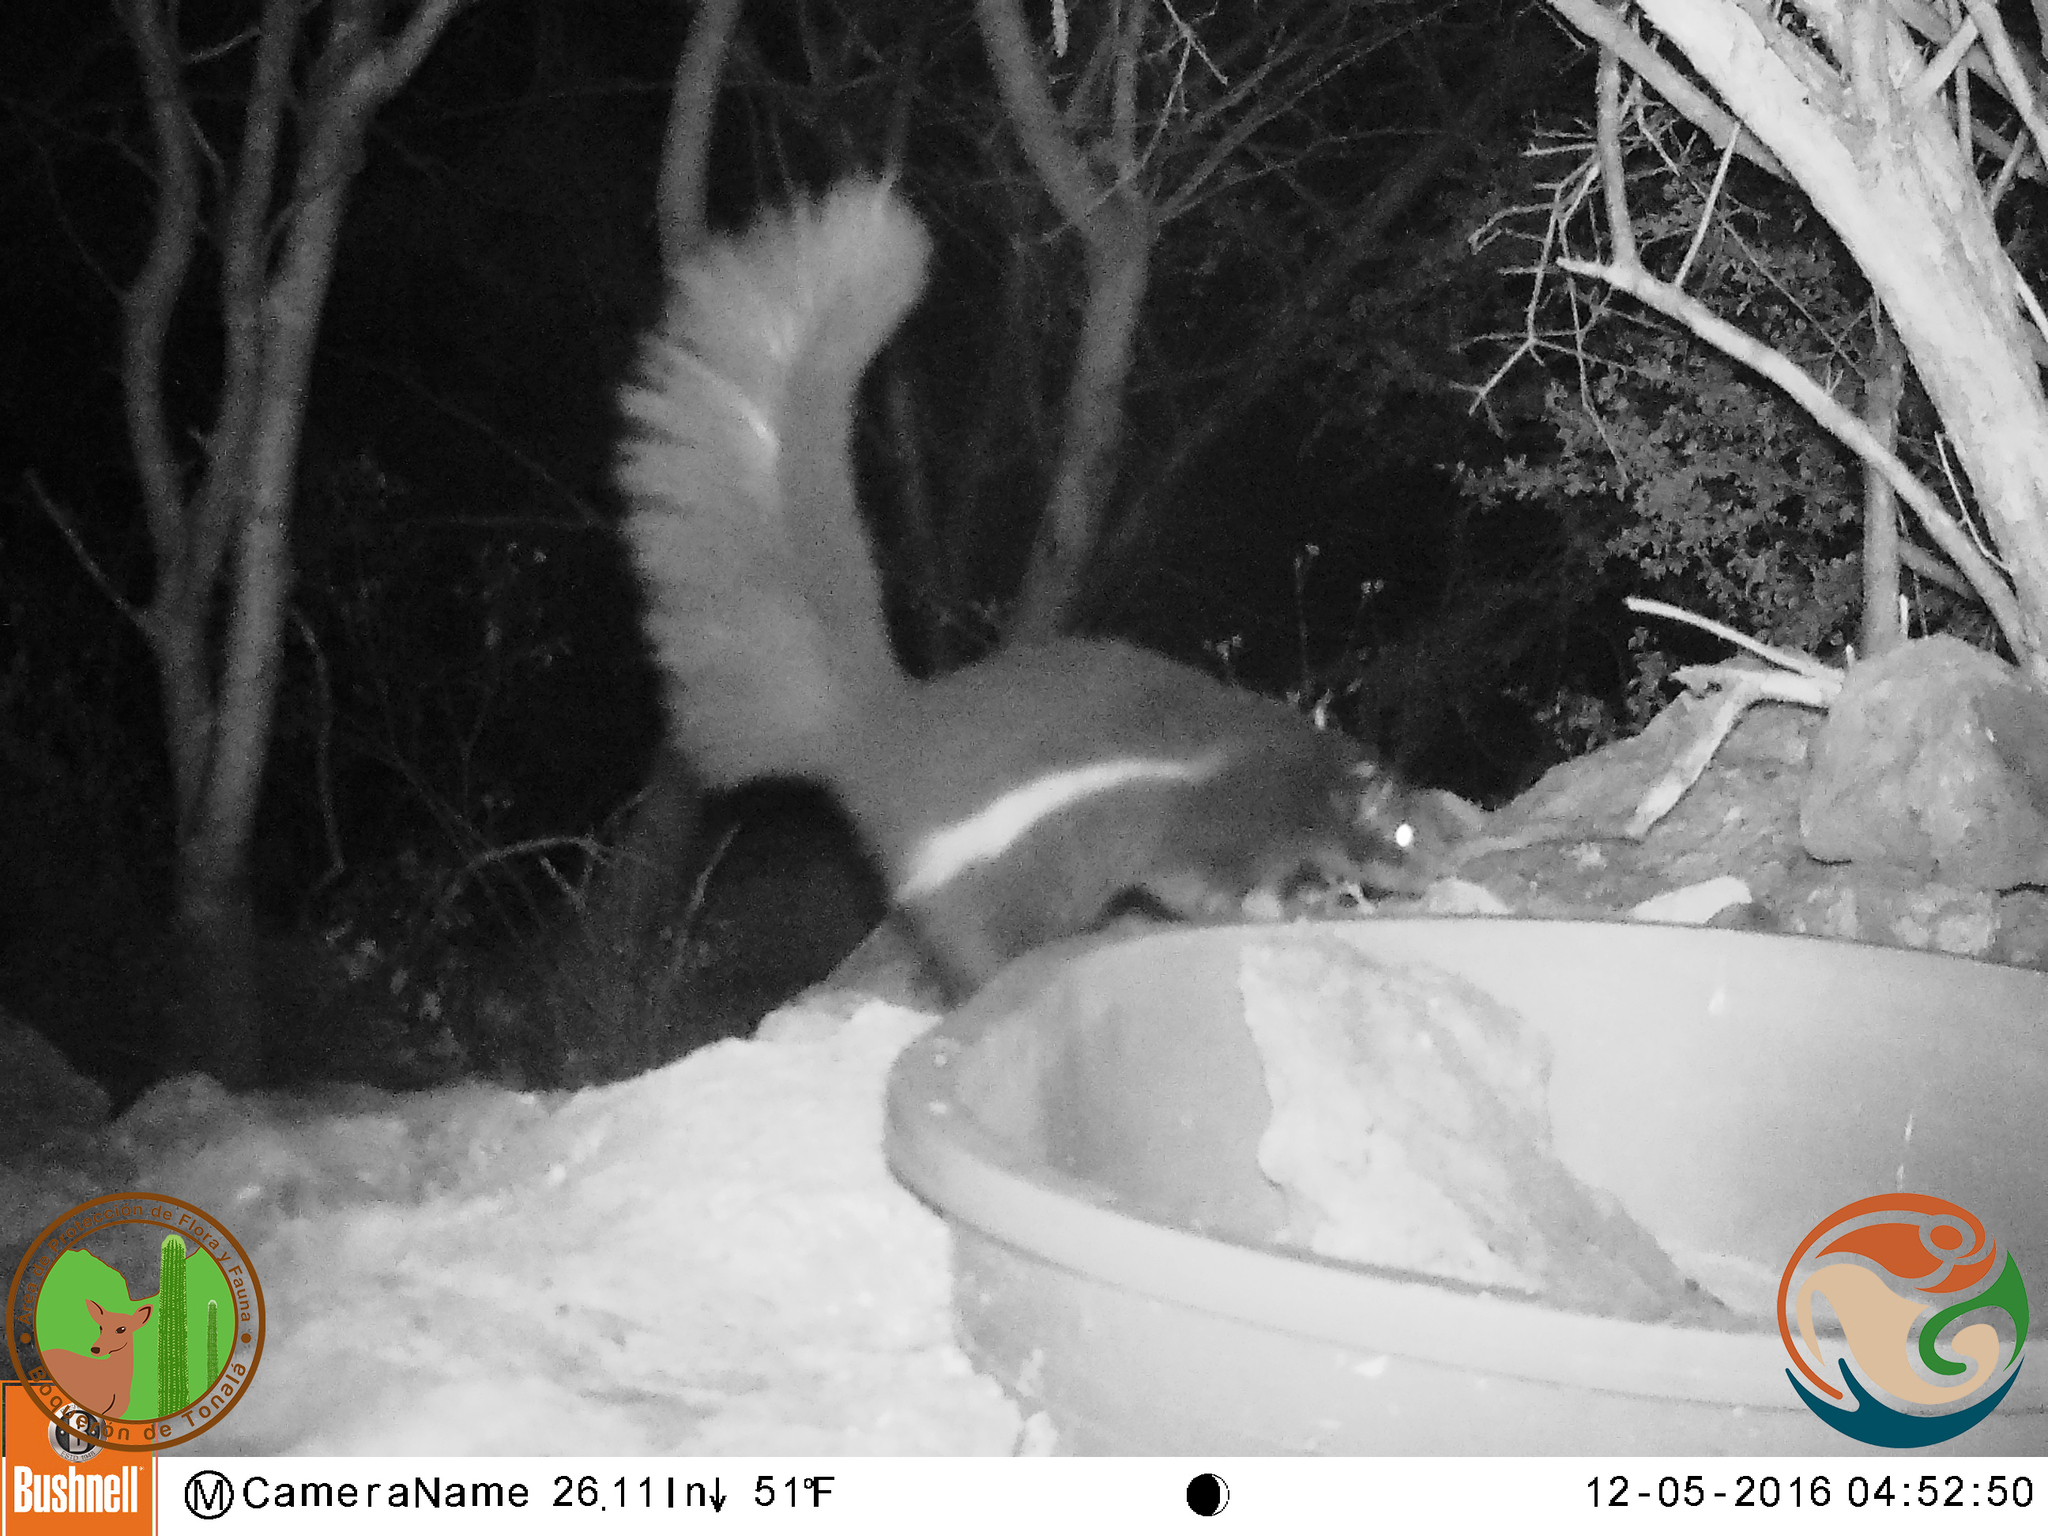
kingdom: Animalia
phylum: Chordata
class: Mammalia
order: Carnivora
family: Mephitidae
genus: Mephitis
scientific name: Mephitis macroura
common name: Hooded skunk
